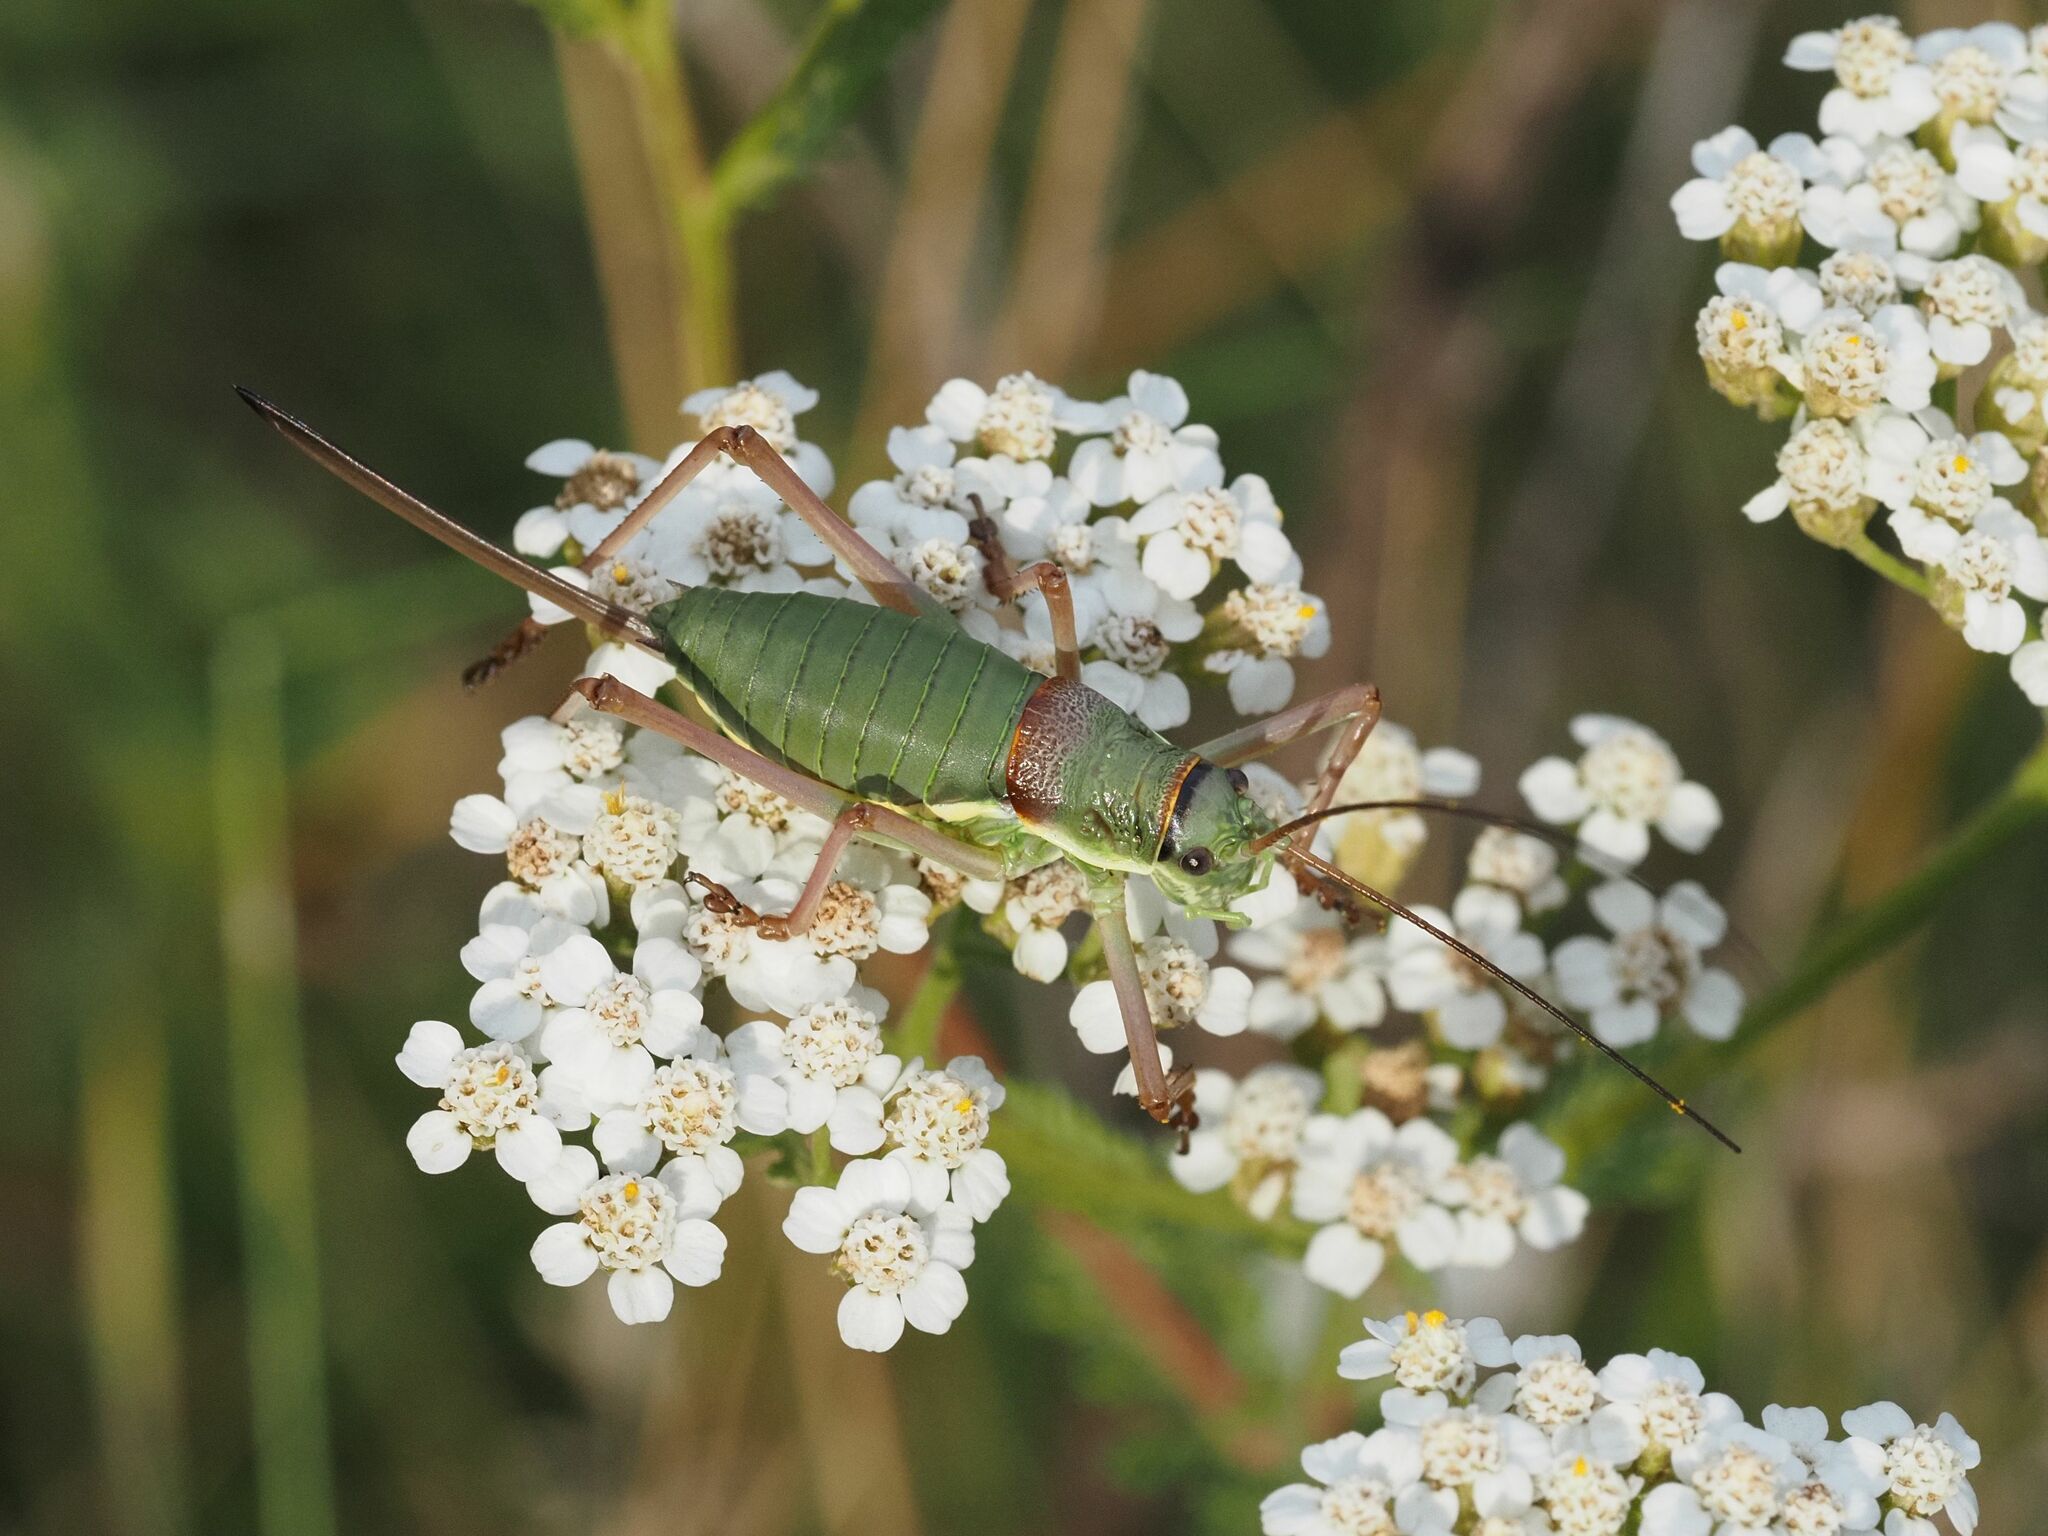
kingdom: Animalia
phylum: Arthropoda
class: Insecta
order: Orthoptera
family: Tettigoniidae
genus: Ephippiger
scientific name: Ephippiger ephippiger
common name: Eastern saddle bush-cricket
